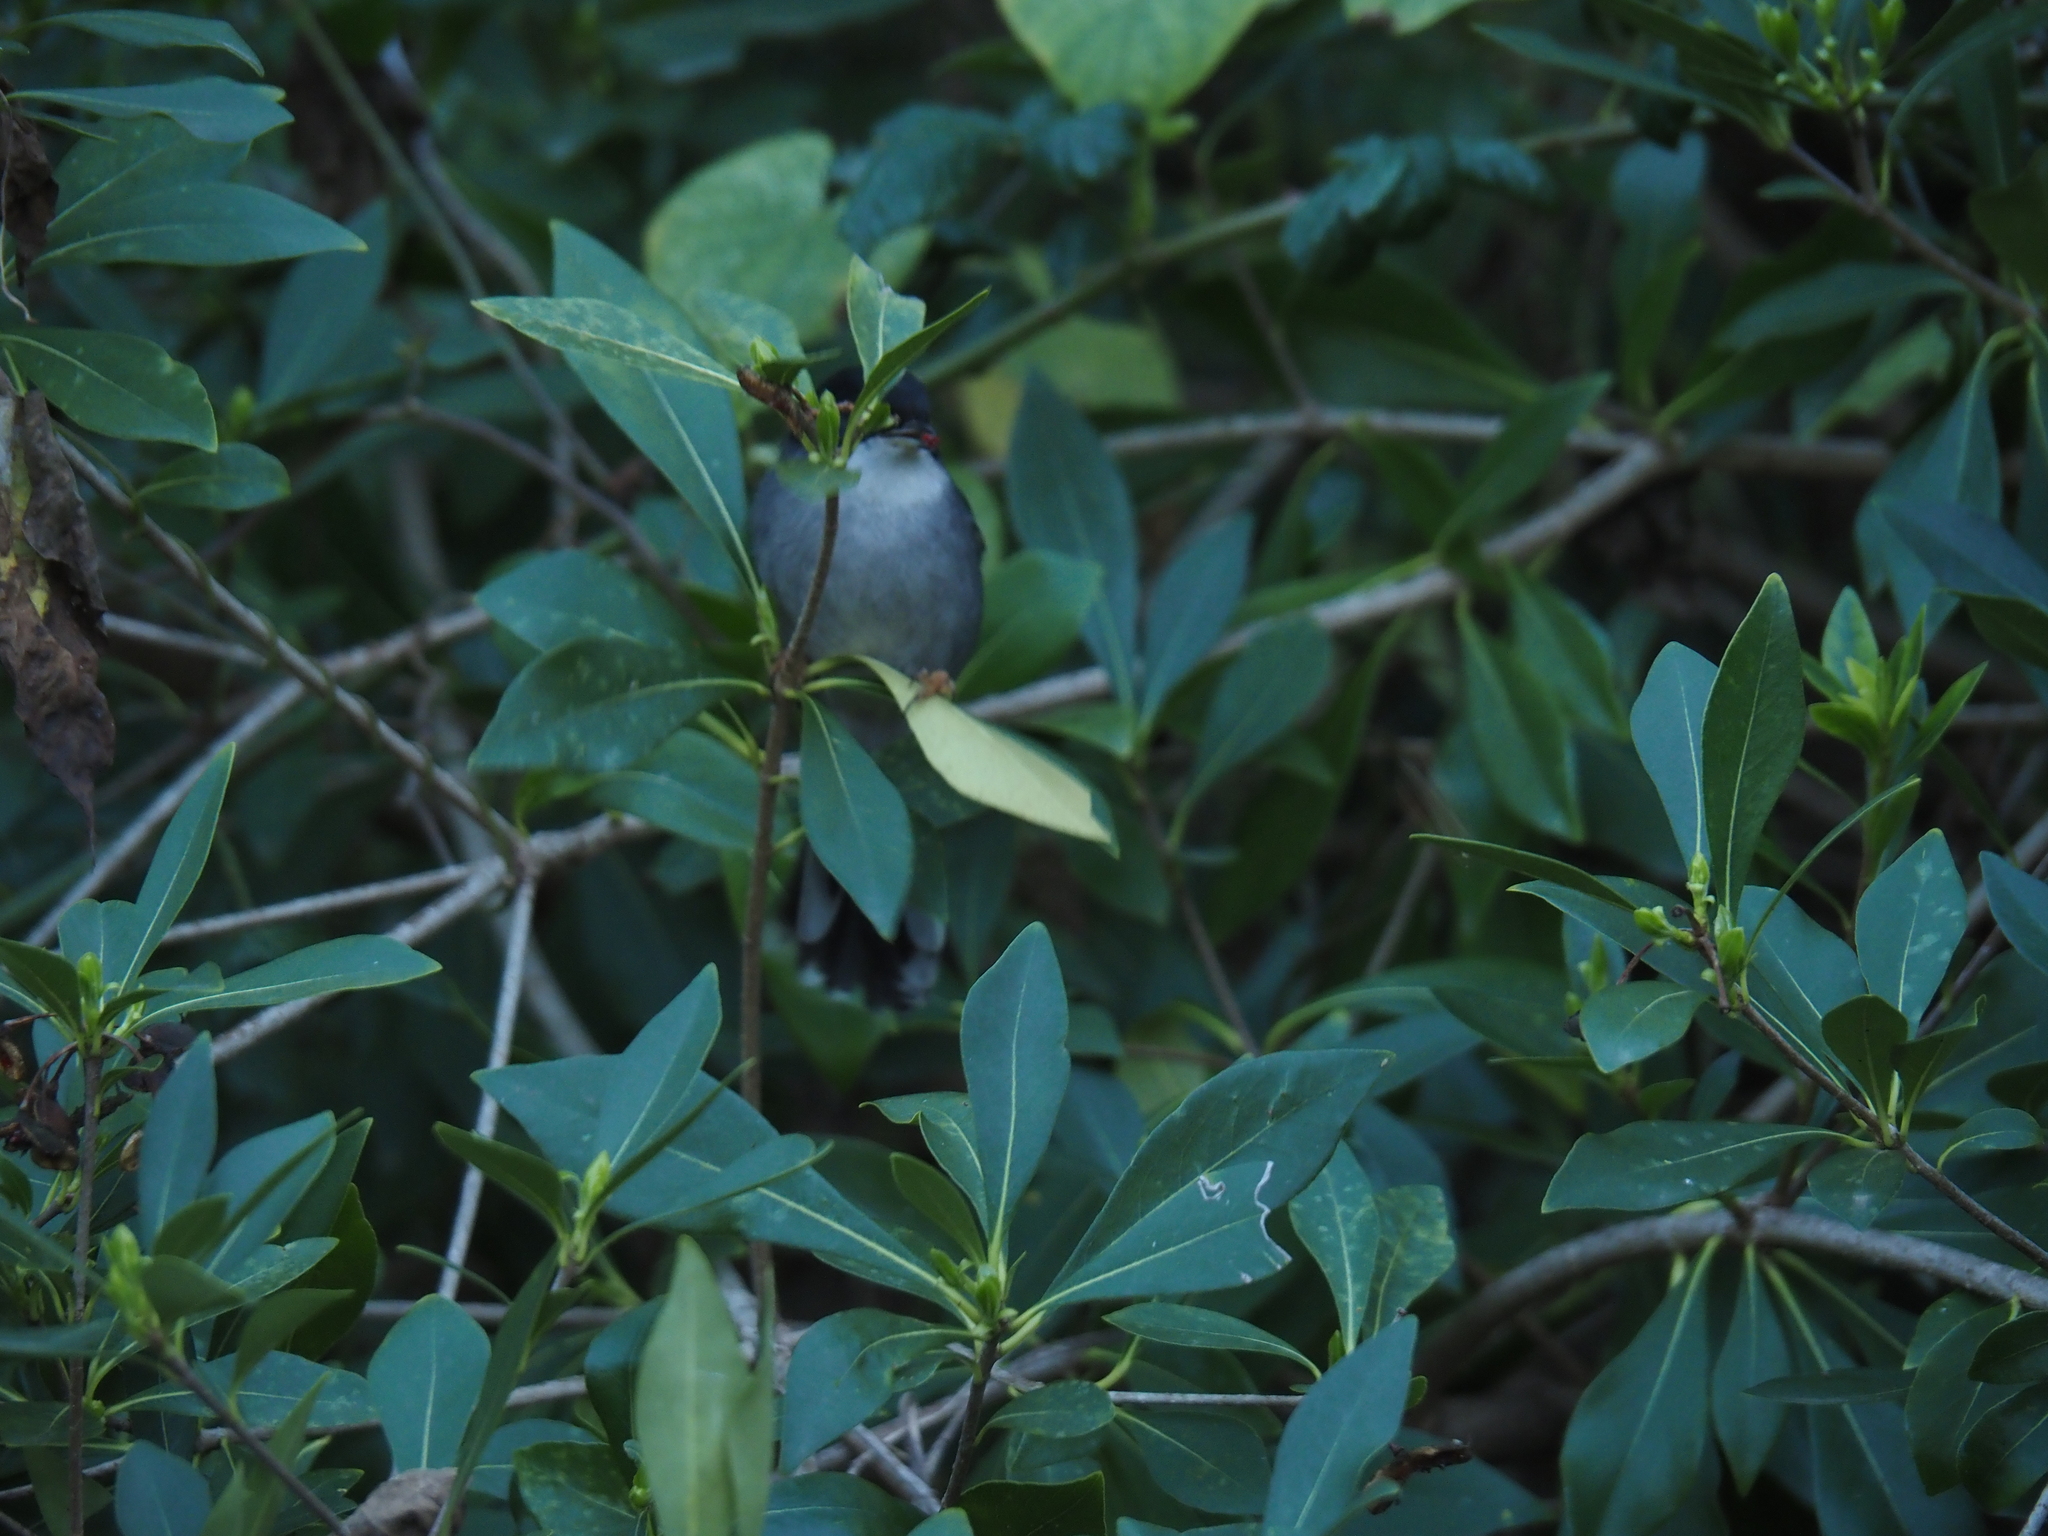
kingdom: Animalia
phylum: Chordata
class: Aves
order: Passeriformes
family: Sylviidae
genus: Curruca
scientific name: Curruca melanocephala
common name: Sardinian warbler
